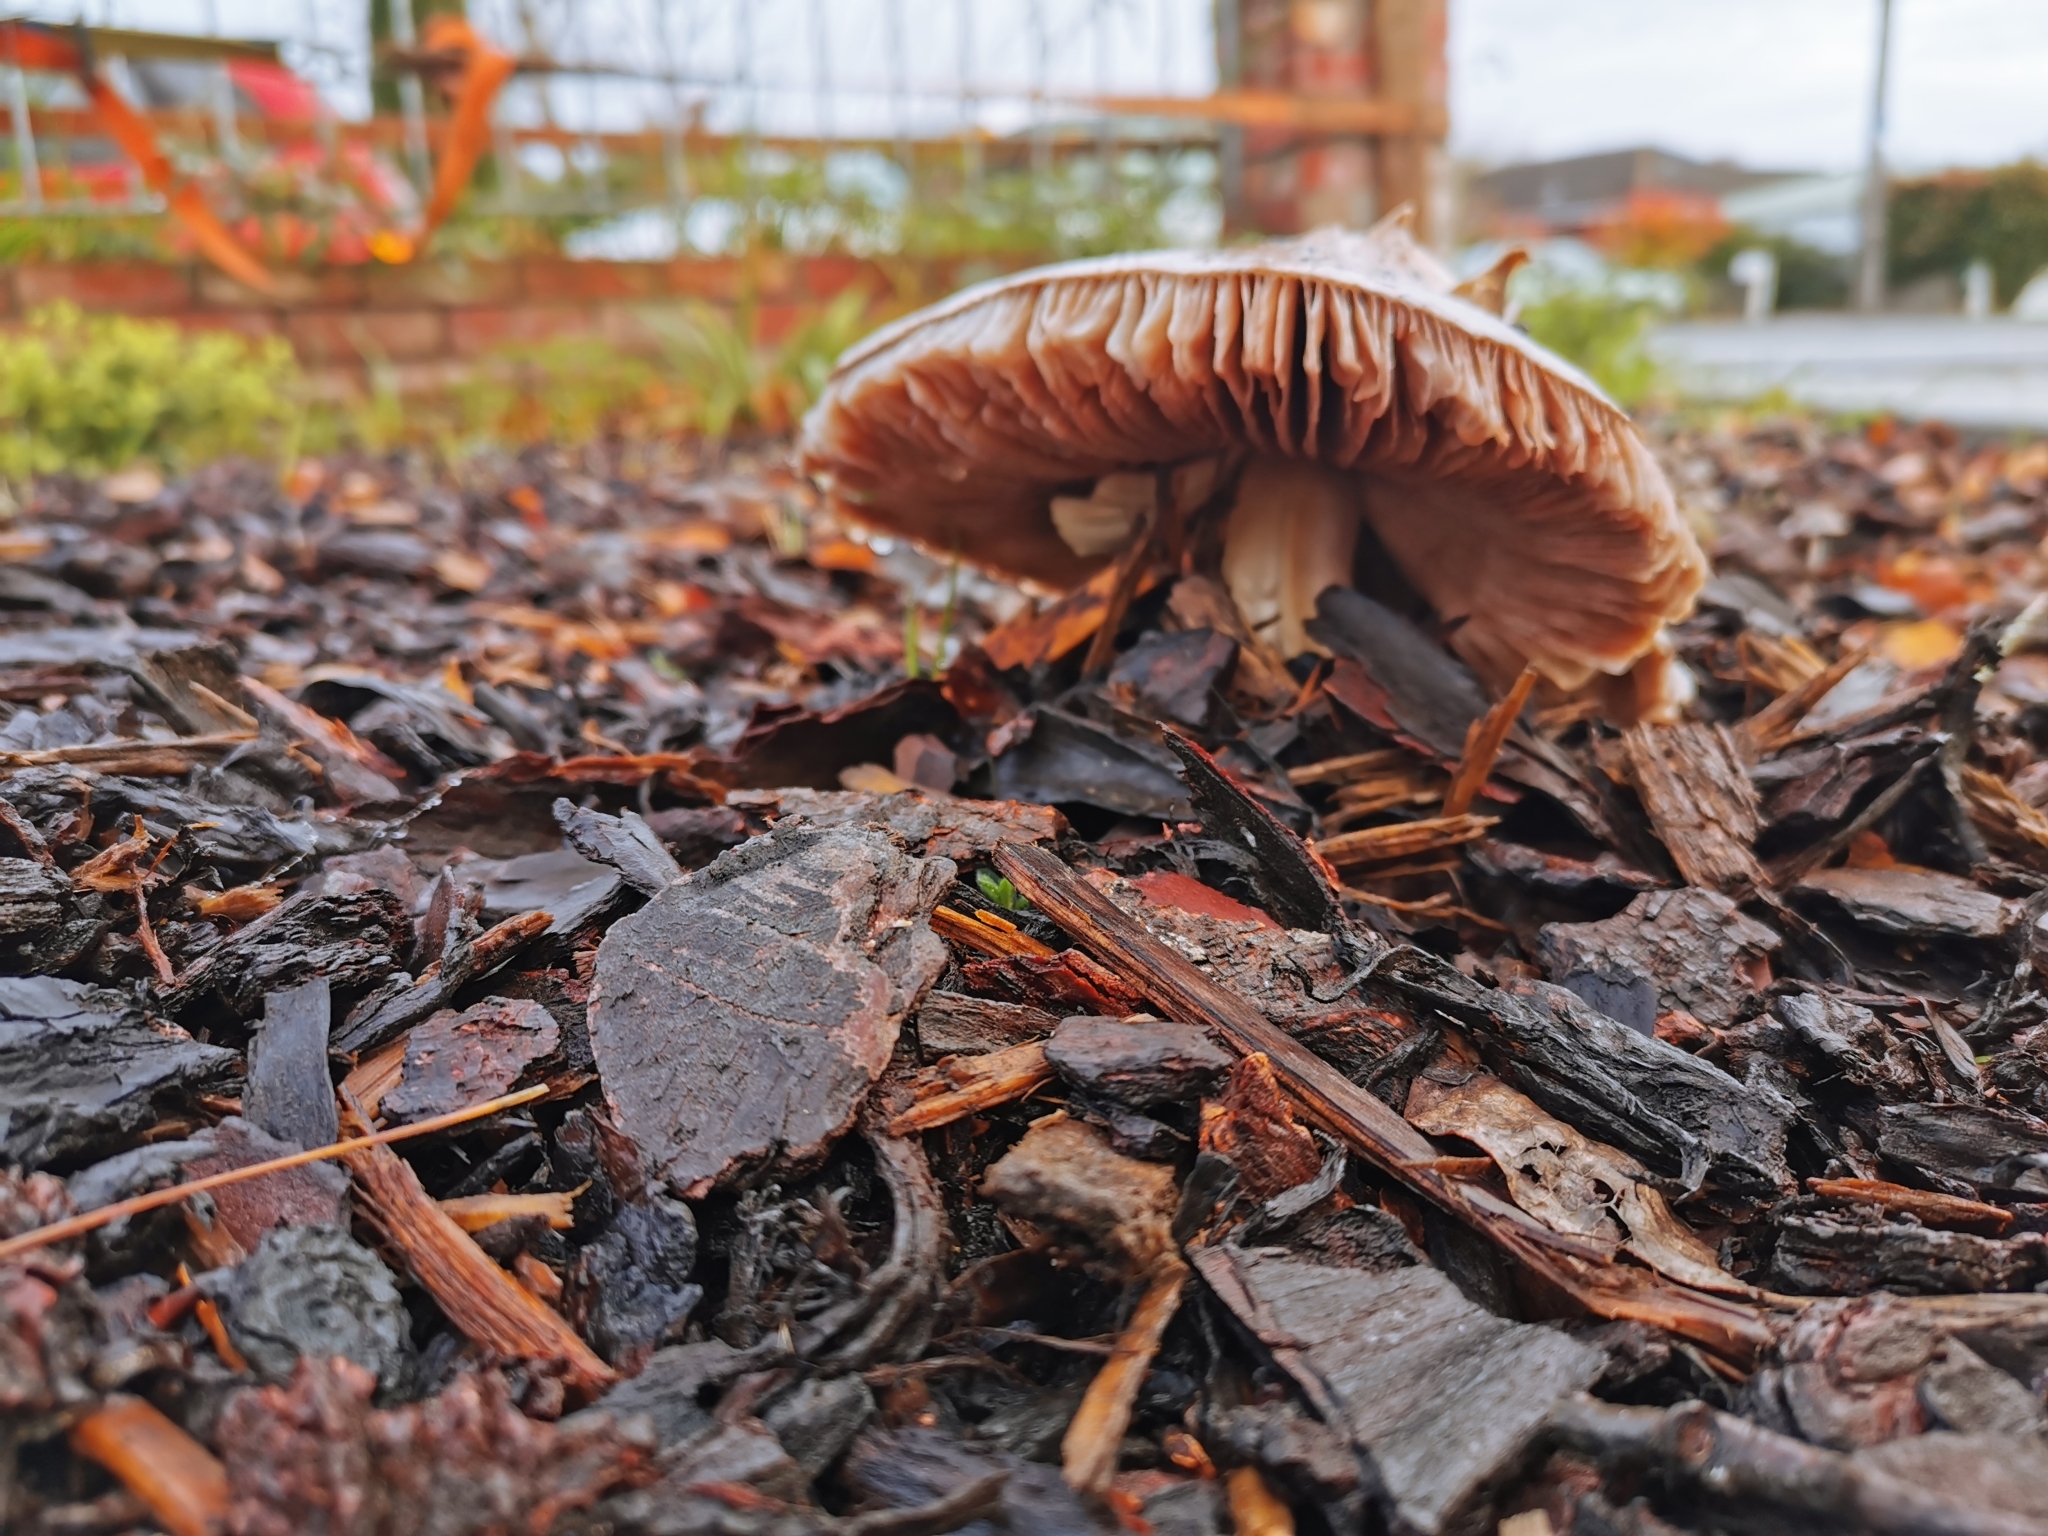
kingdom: Fungi
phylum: Basidiomycota
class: Agaricomycetes
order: Agaricales
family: Pluteaceae
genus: Volvopluteus
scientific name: Volvopluteus gloiocephalus
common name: Stubble rosegill
